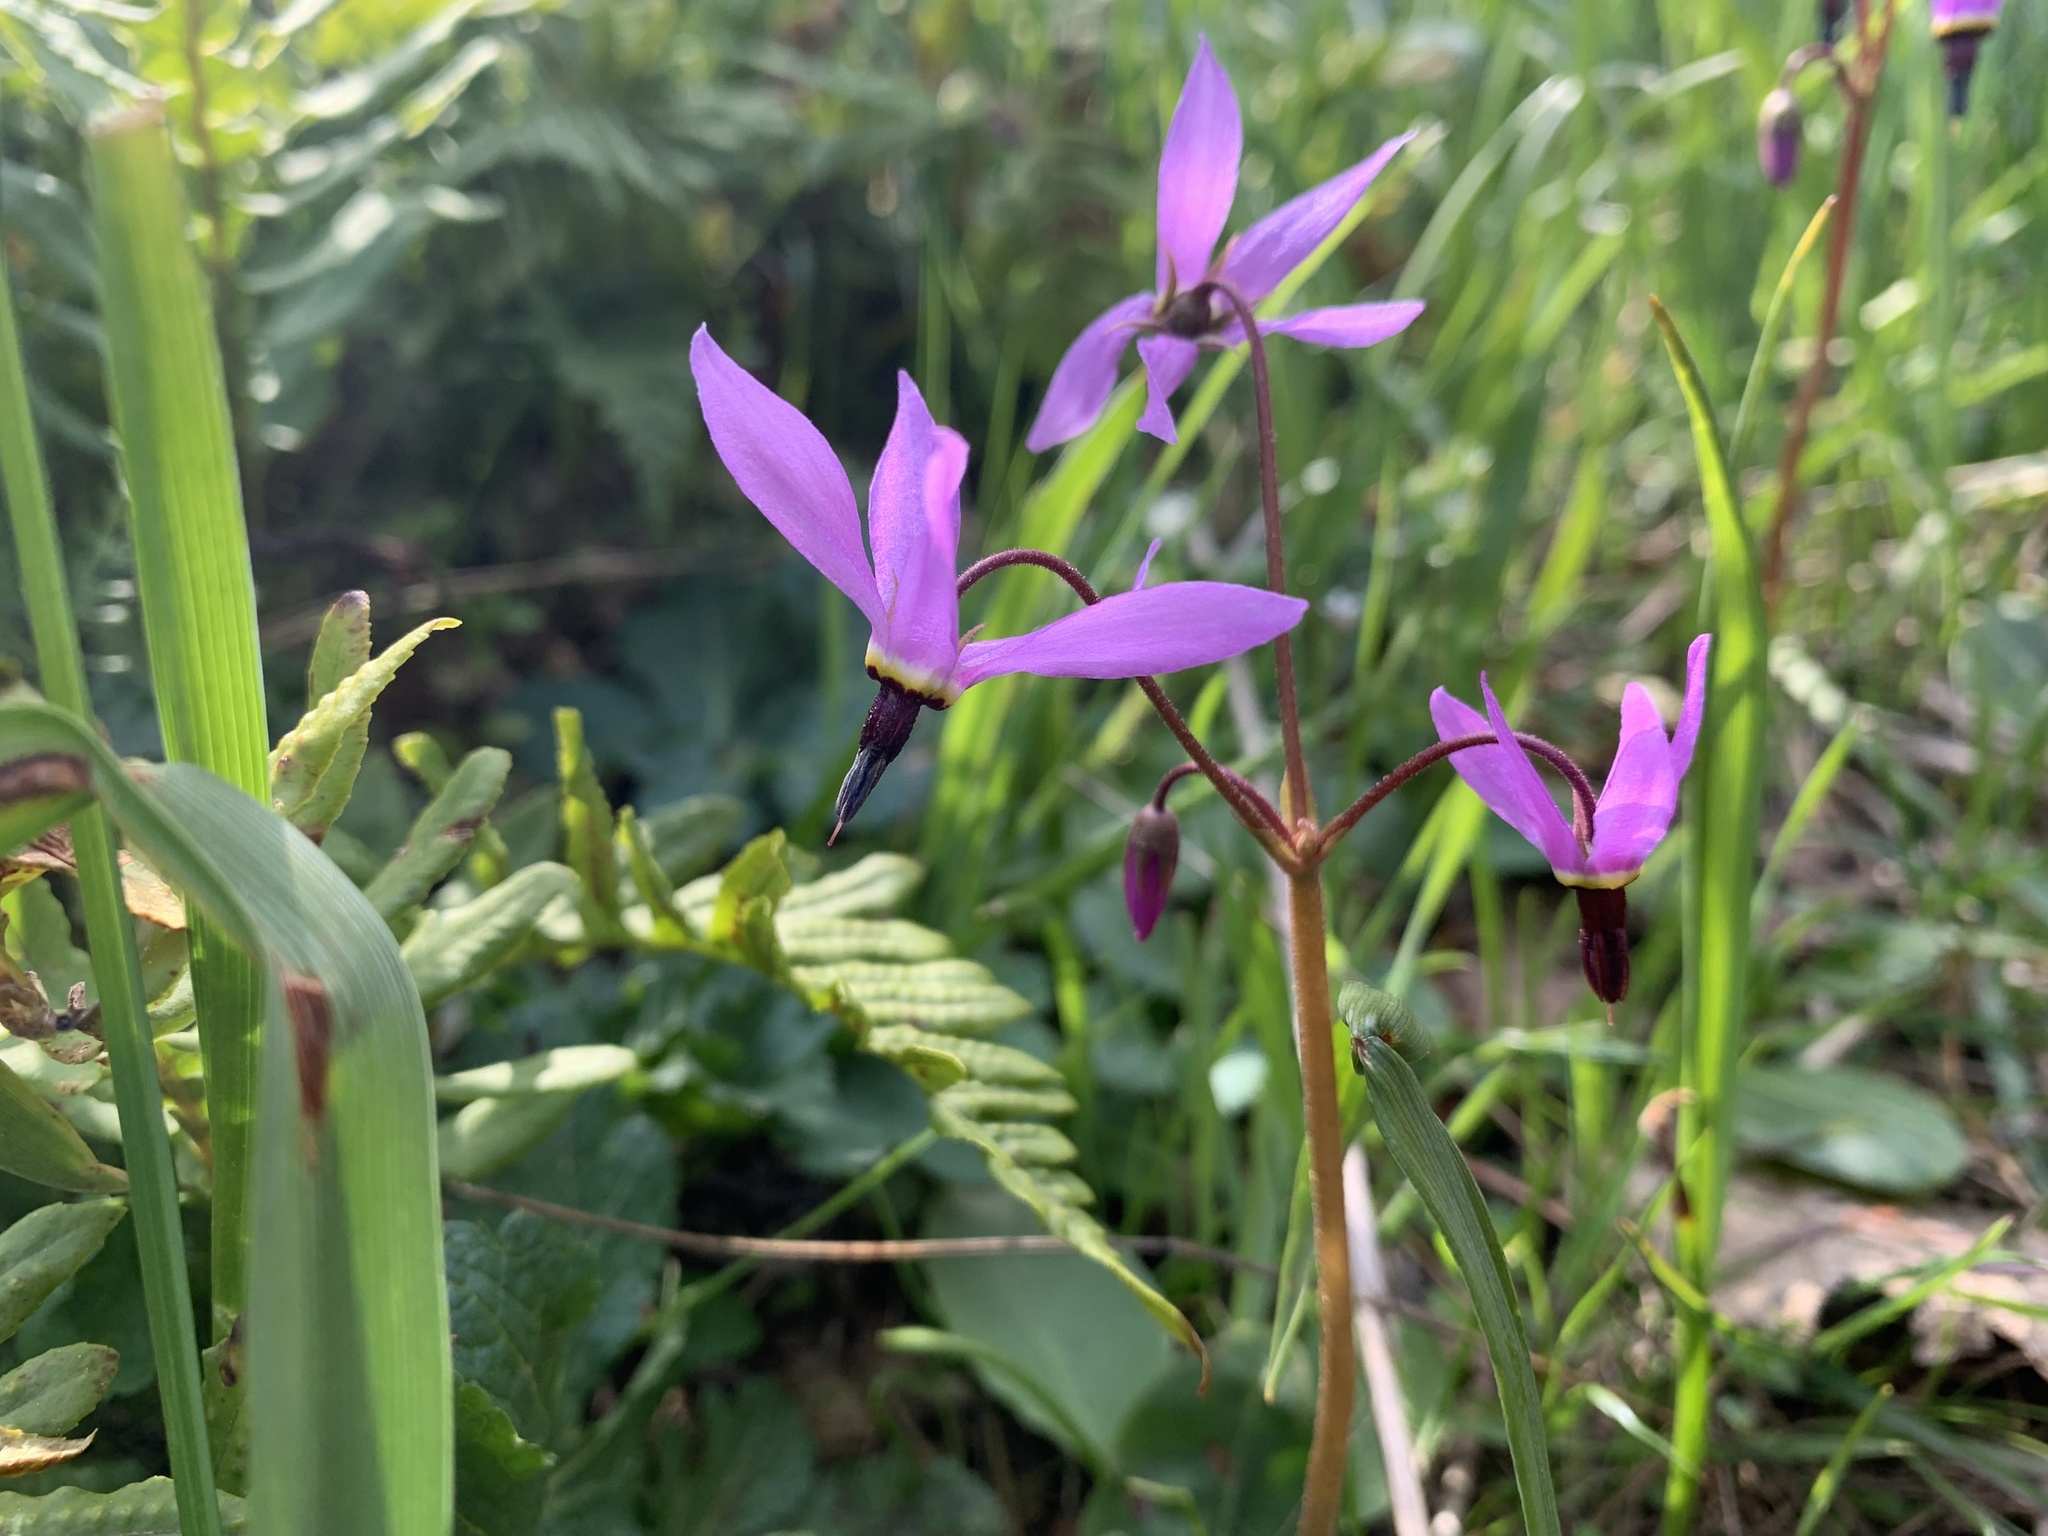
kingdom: Plantae
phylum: Tracheophyta
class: Magnoliopsida
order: Ericales
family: Primulaceae
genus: Dodecatheon
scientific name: Dodecatheon hendersonii
